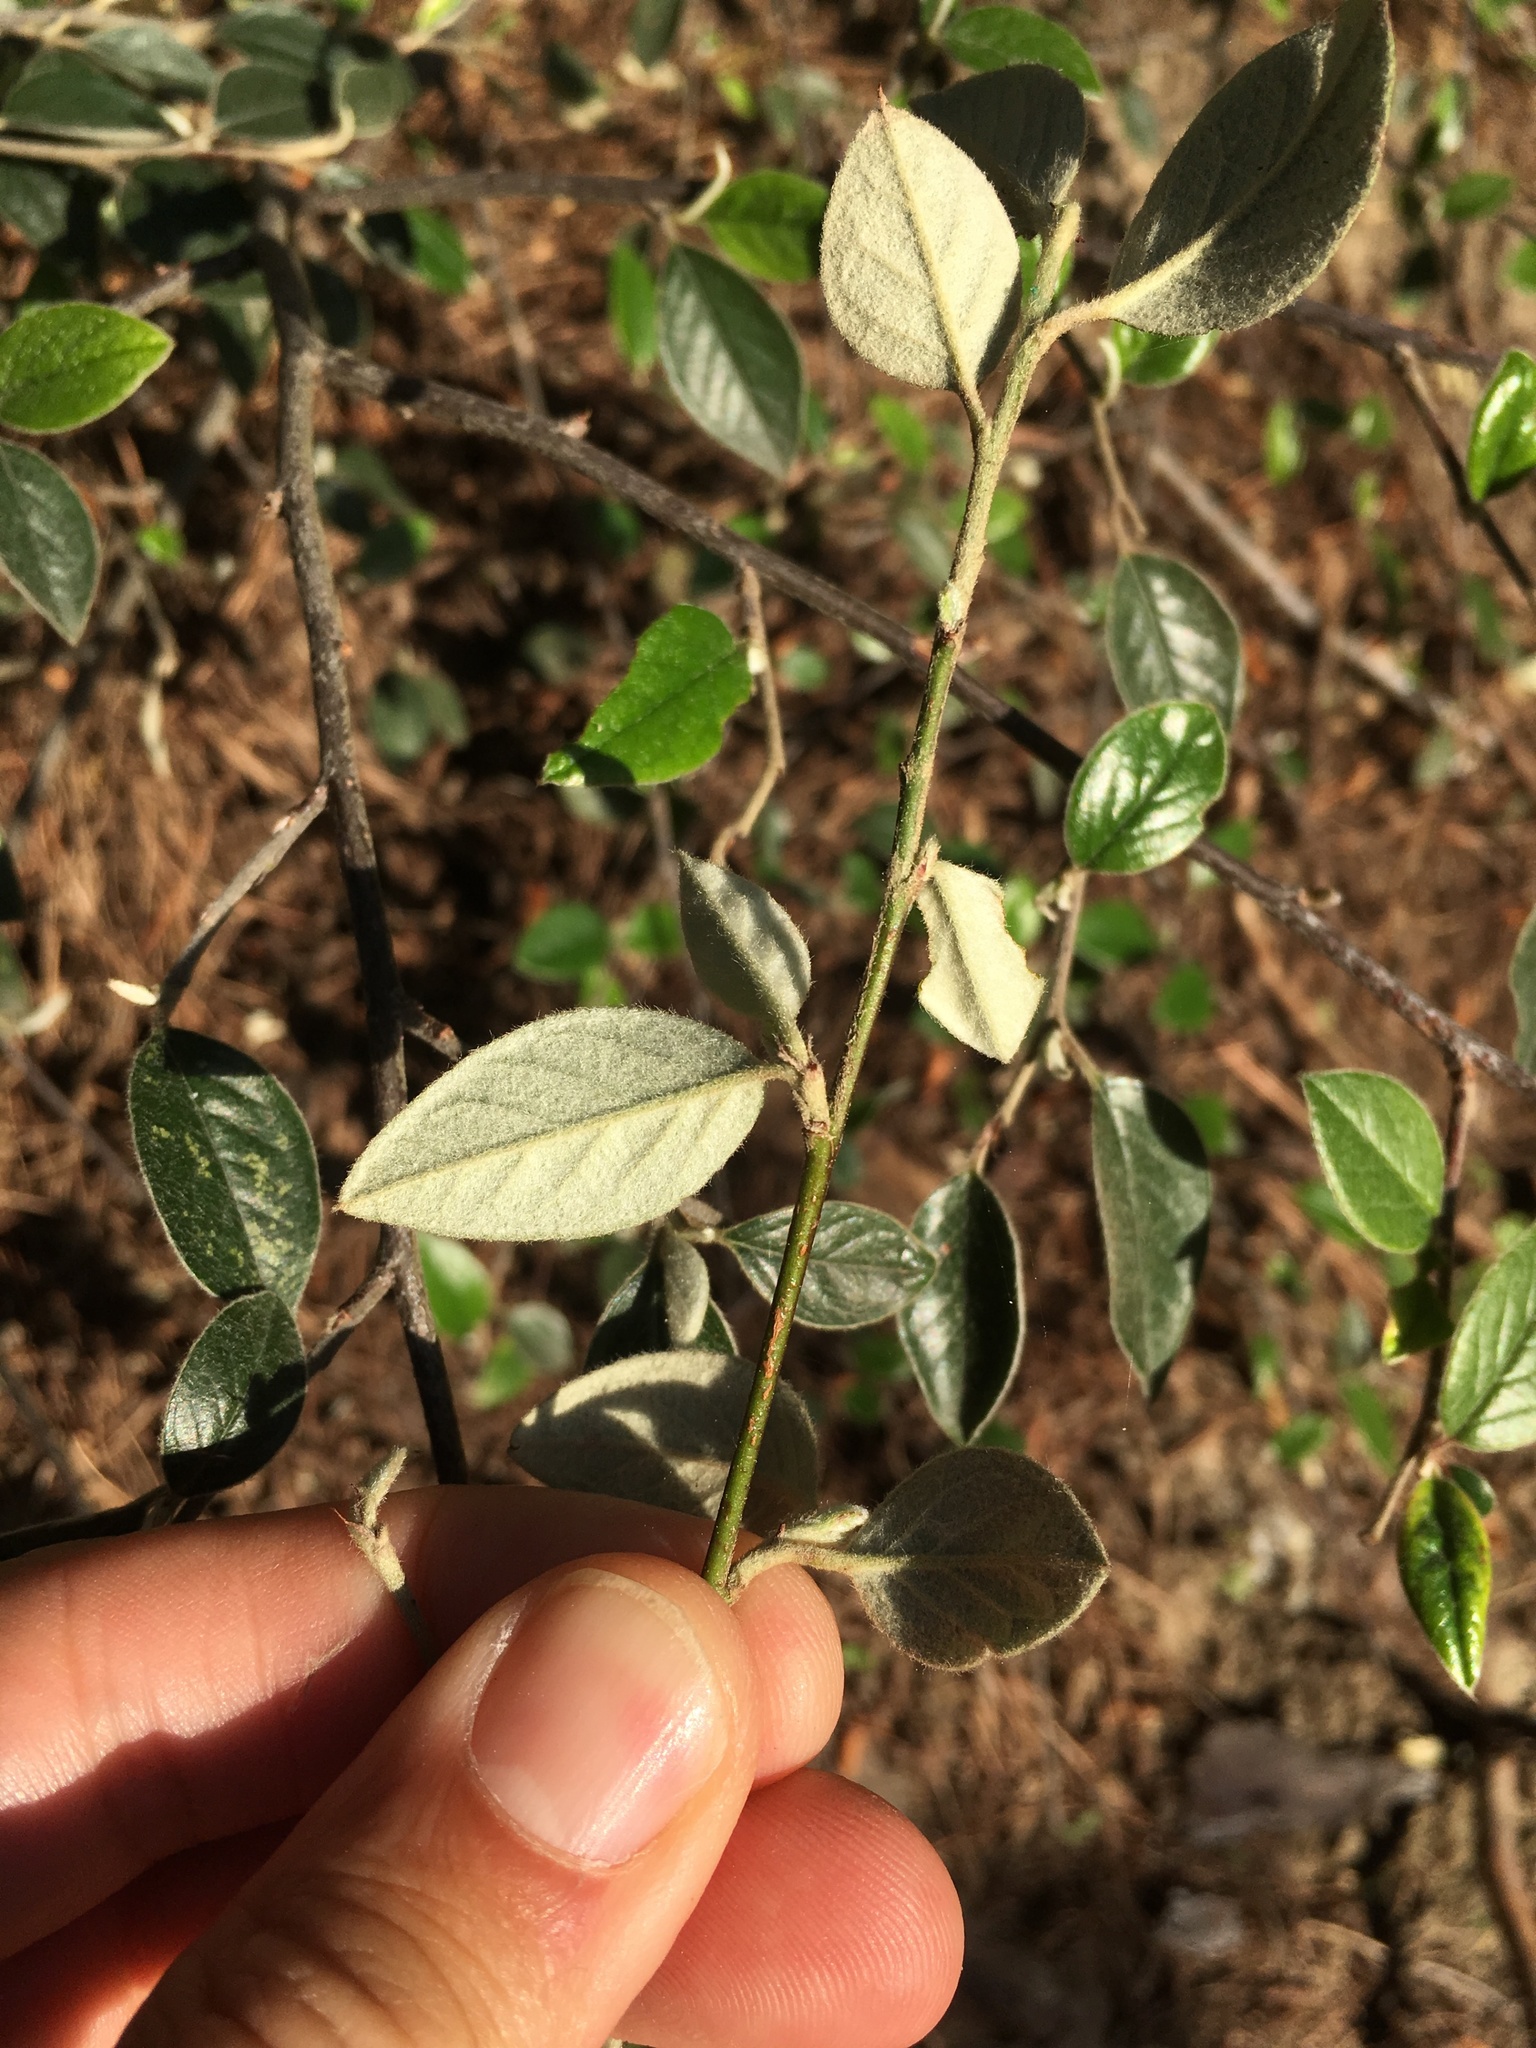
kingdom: Plantae
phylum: Tracheophyta
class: Magnoliopsida
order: Rosales
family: Rosaceae
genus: Cotoneaster
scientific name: Cotoneaster simonsii
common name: Himalayan cotoneaster
